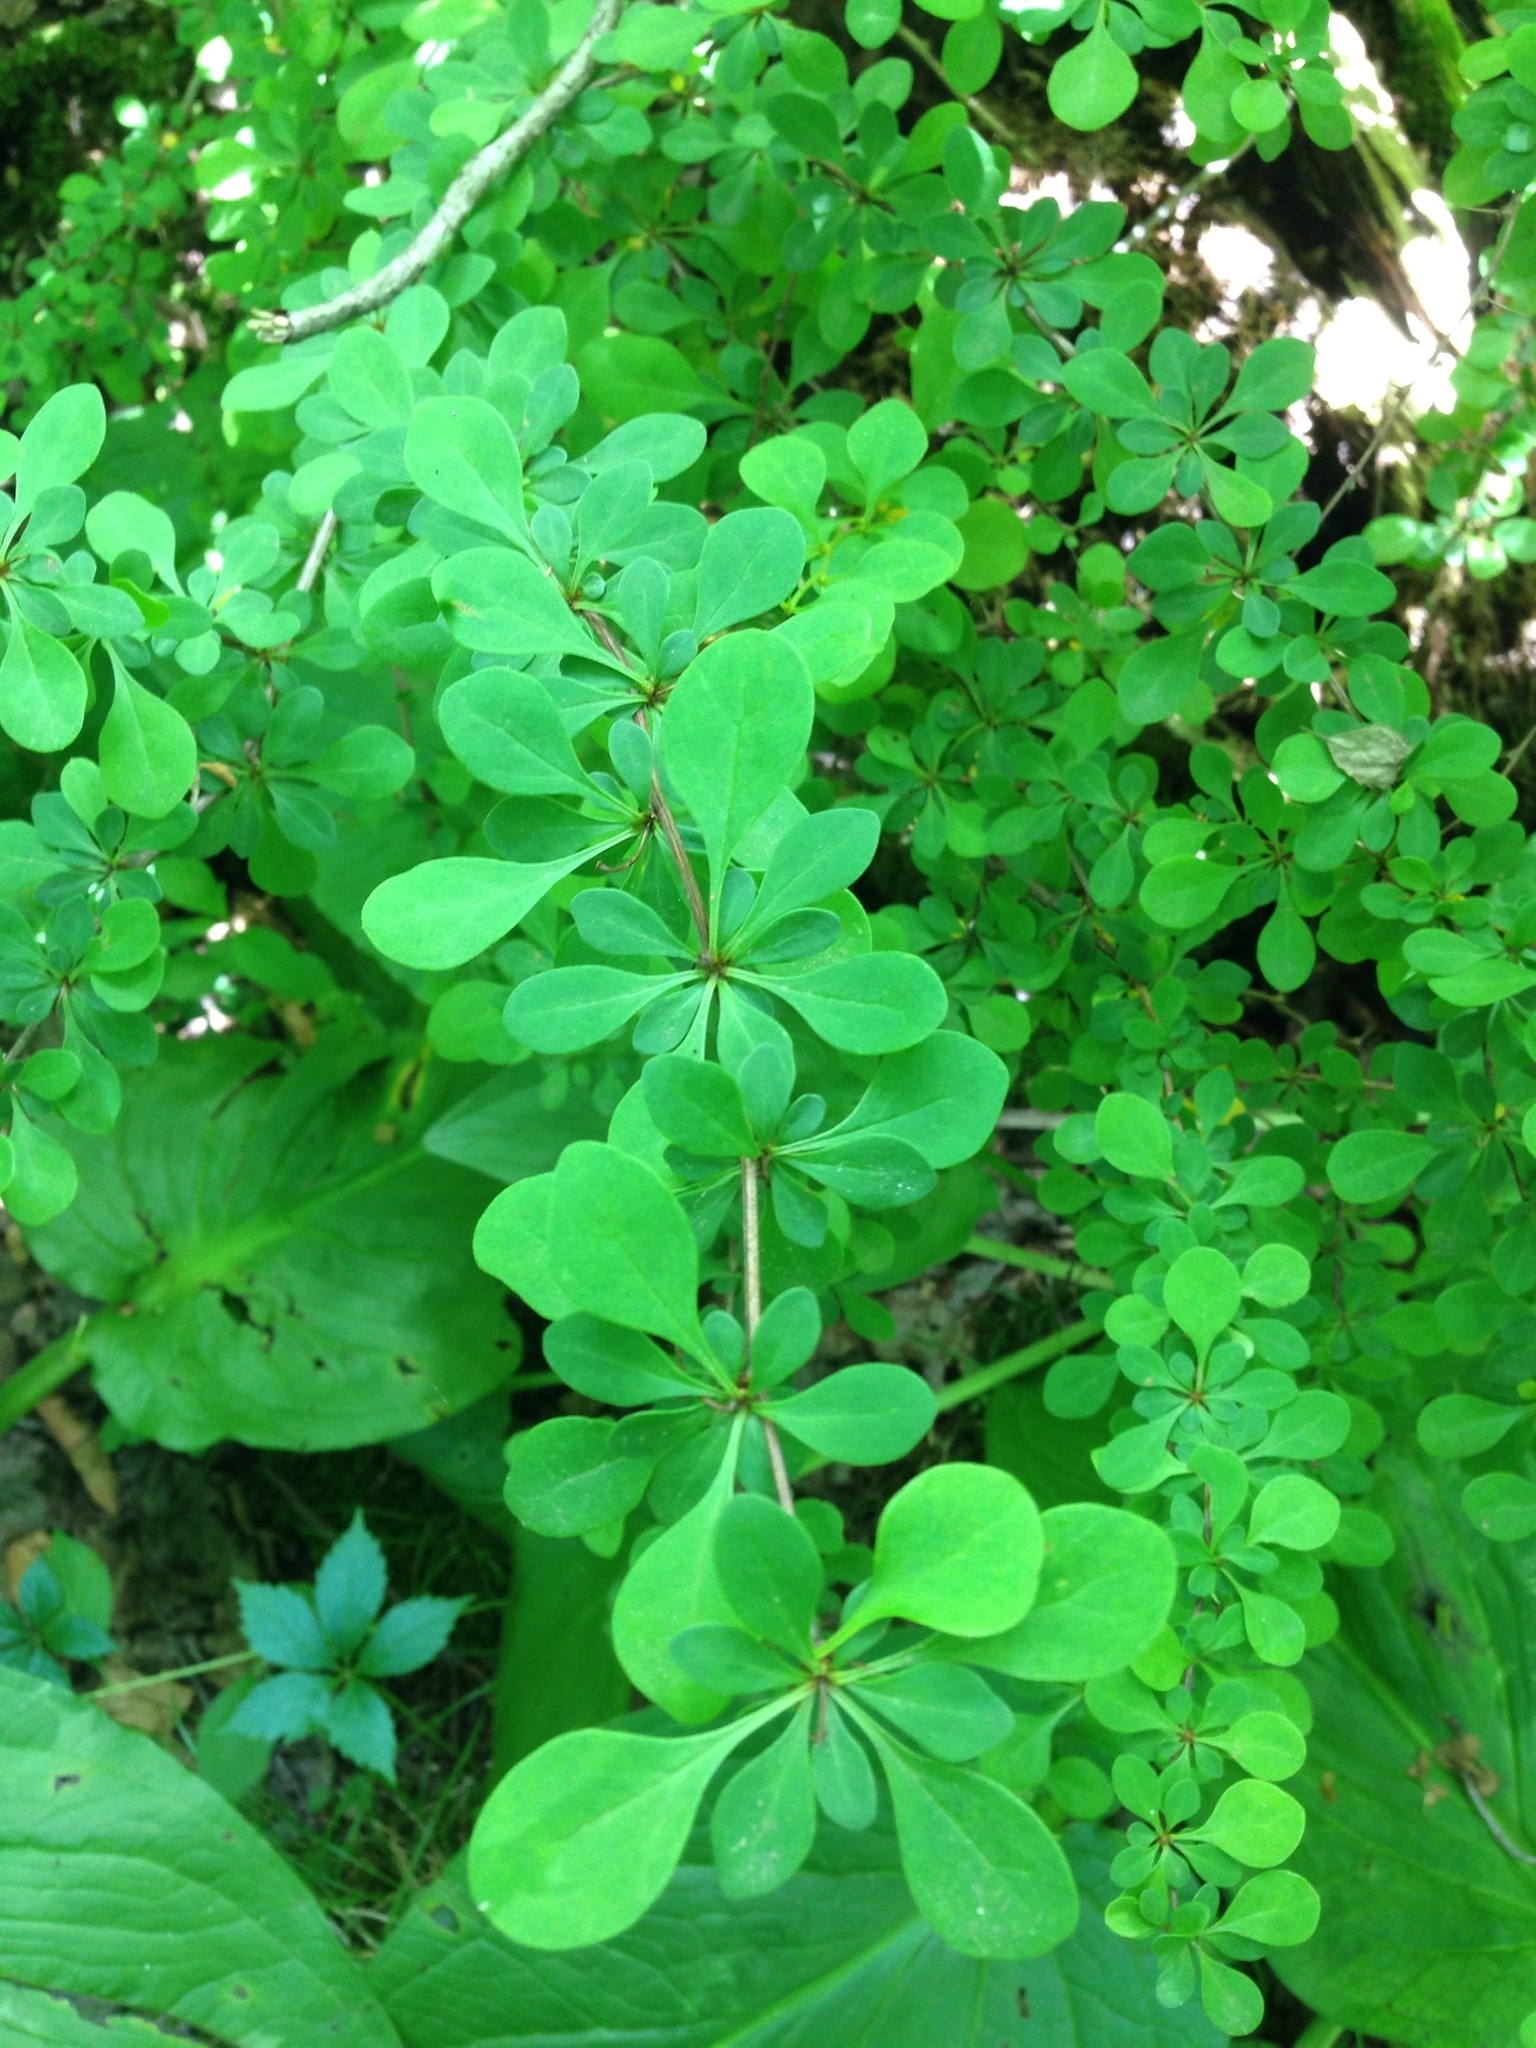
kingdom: Plantae
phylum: Tracheophyta
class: Magnoliopsida
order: Ranunculales
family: Berberidaceae
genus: Berberis
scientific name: Berberis thunbergii
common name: Japanese barberry
